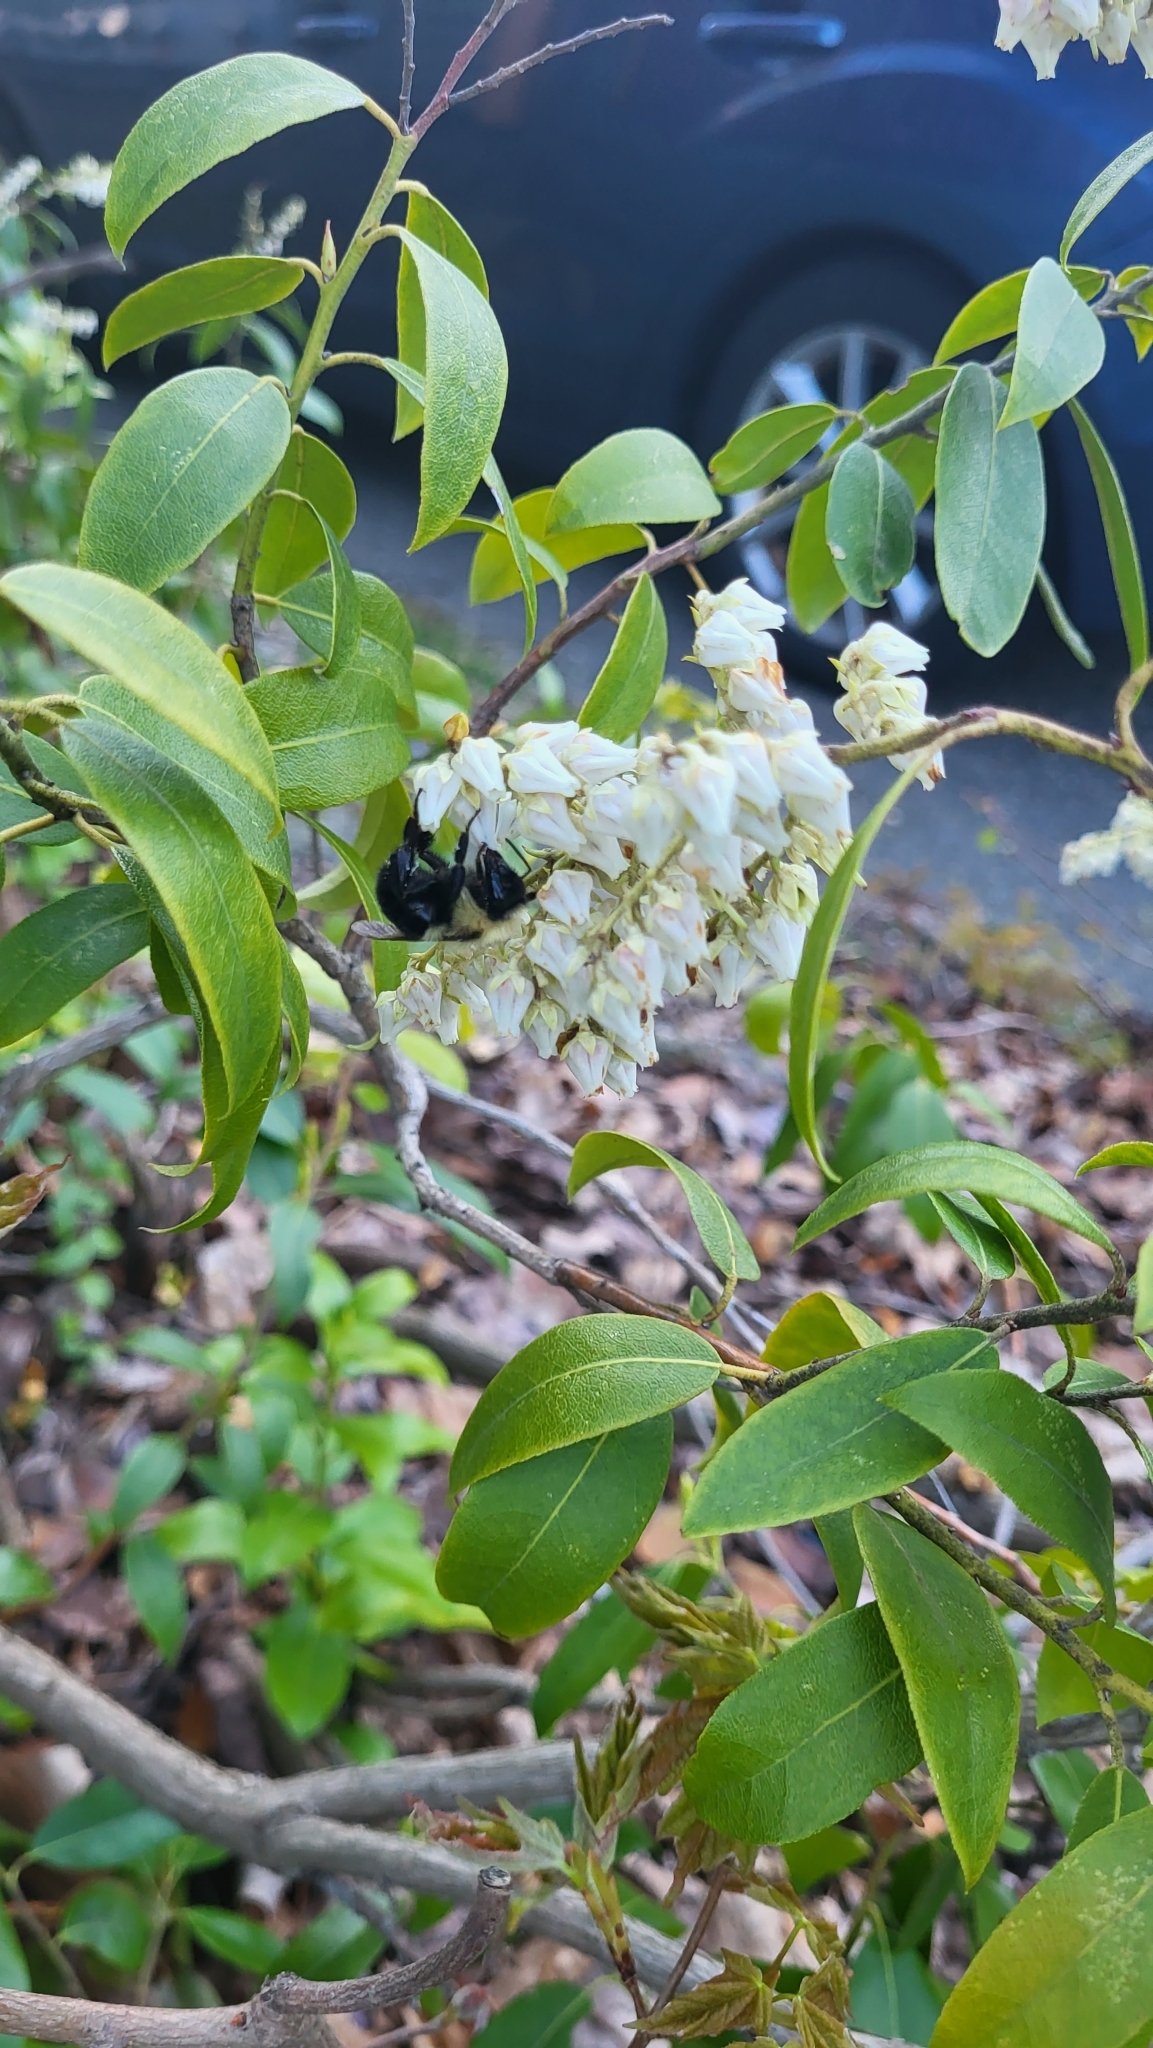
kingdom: Animalia
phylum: Arthropoda
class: Insecta
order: Hymenoptera
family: Apidae
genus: Bombus
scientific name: Bombus bimaculatus
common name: Two-spotted bumble bee
